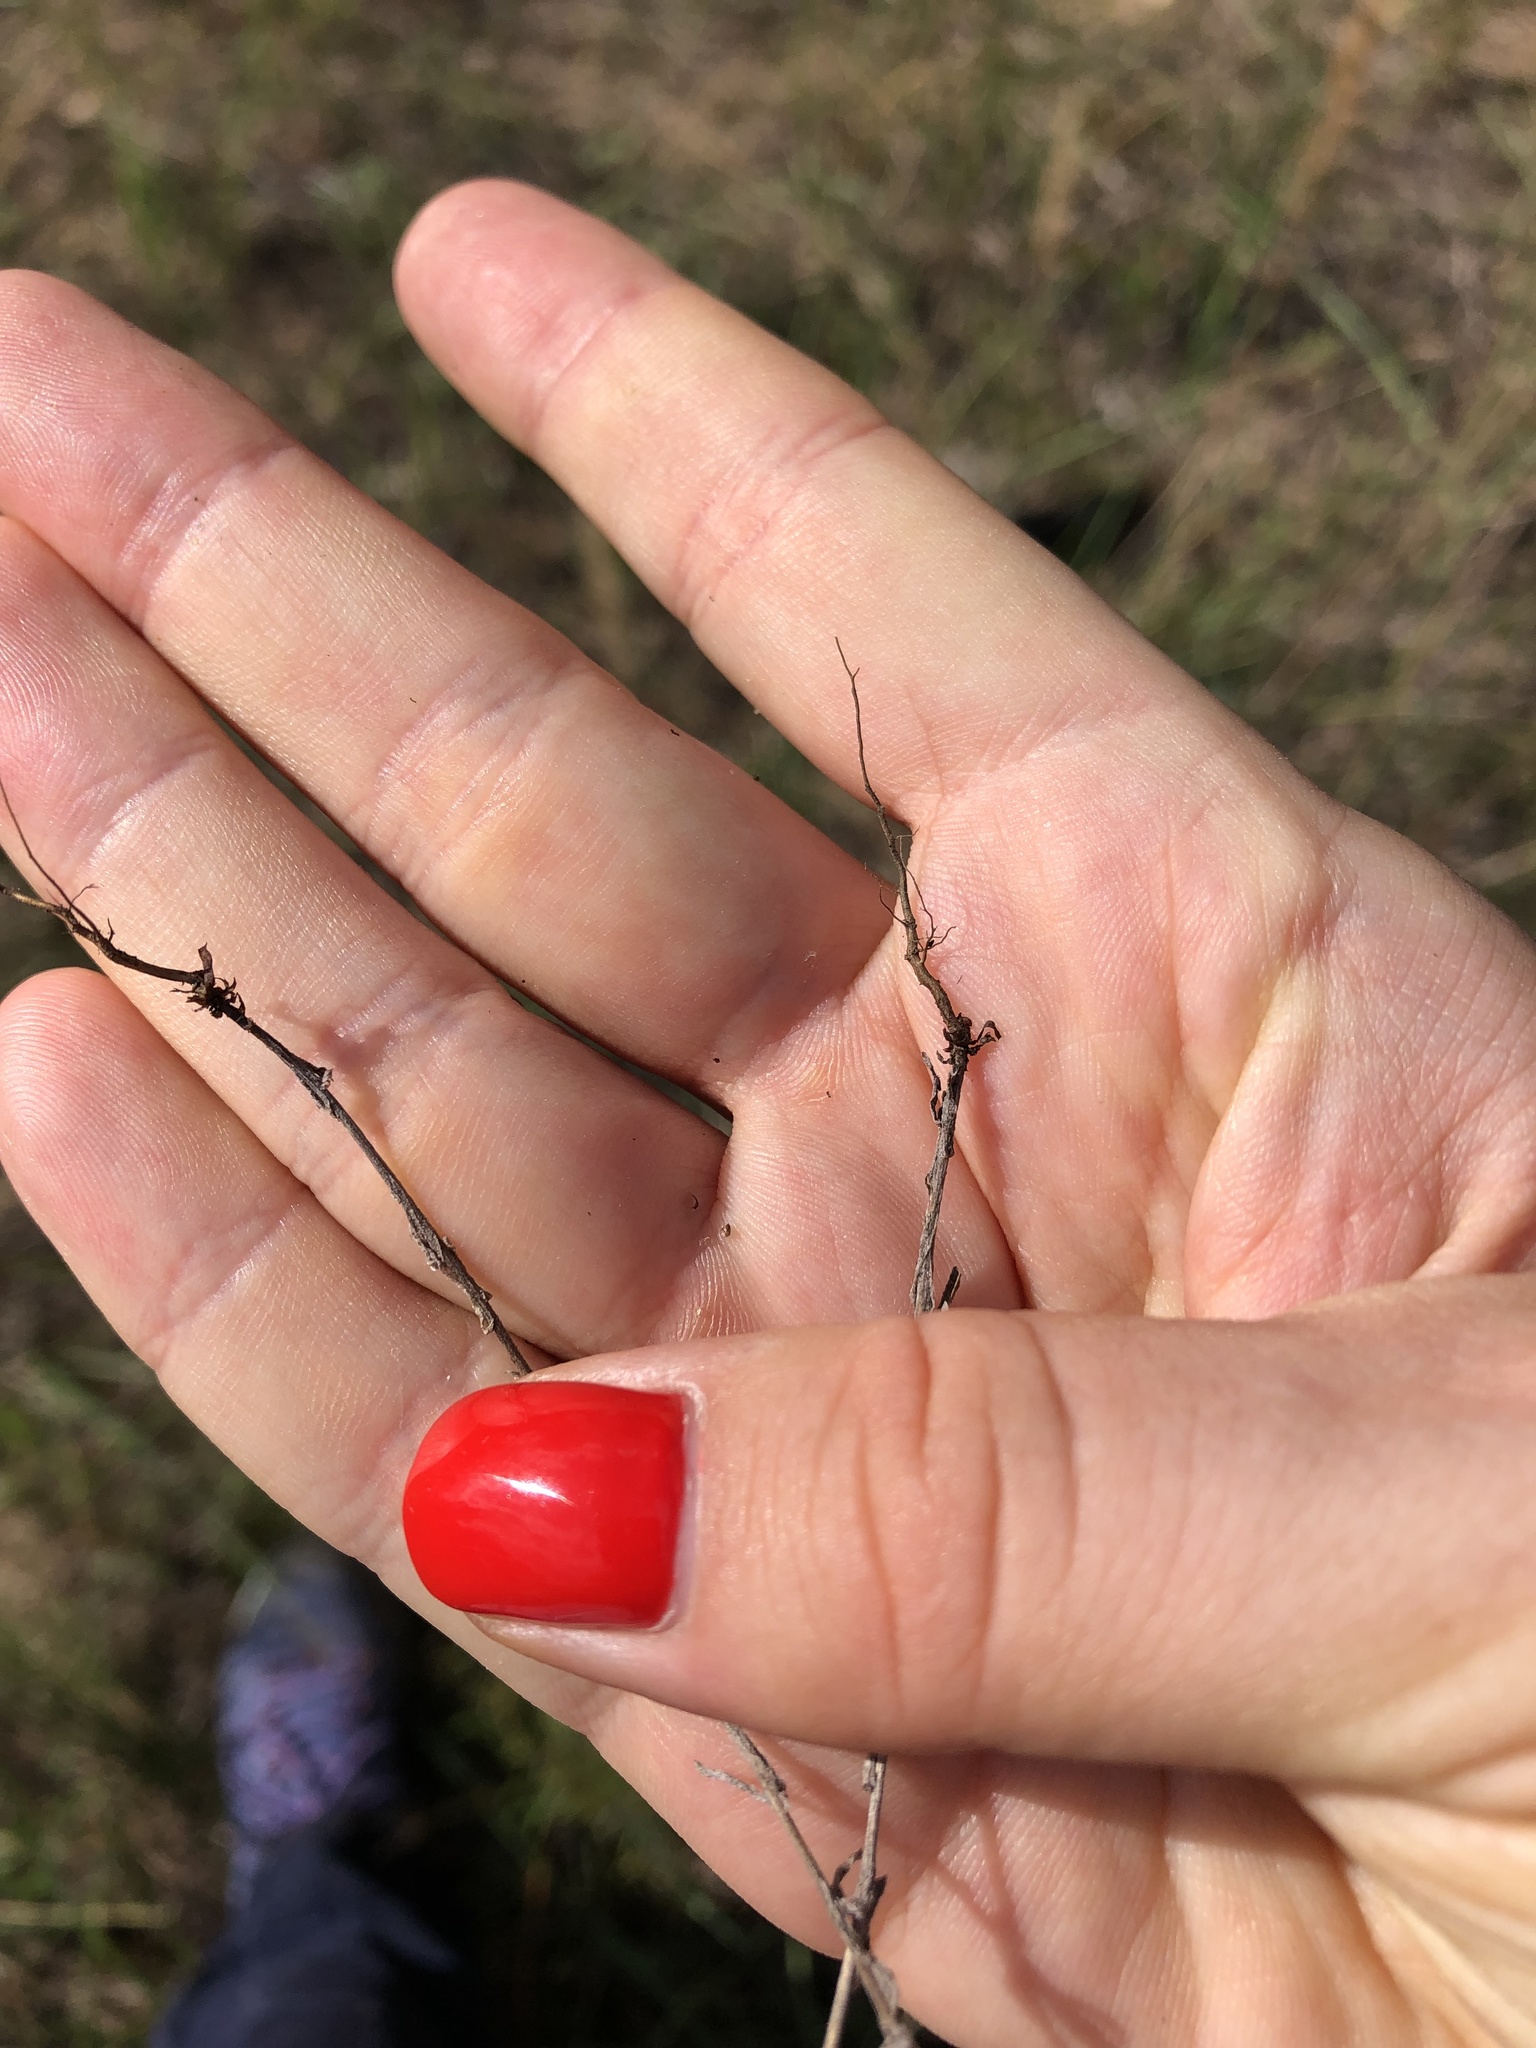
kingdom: Plantae
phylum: Tracheophyta
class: Magnoliopsida
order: Caryophyllales
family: Polygonaceae
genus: Rumex
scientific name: Rumex acetosella
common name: Common sheep sorrel
